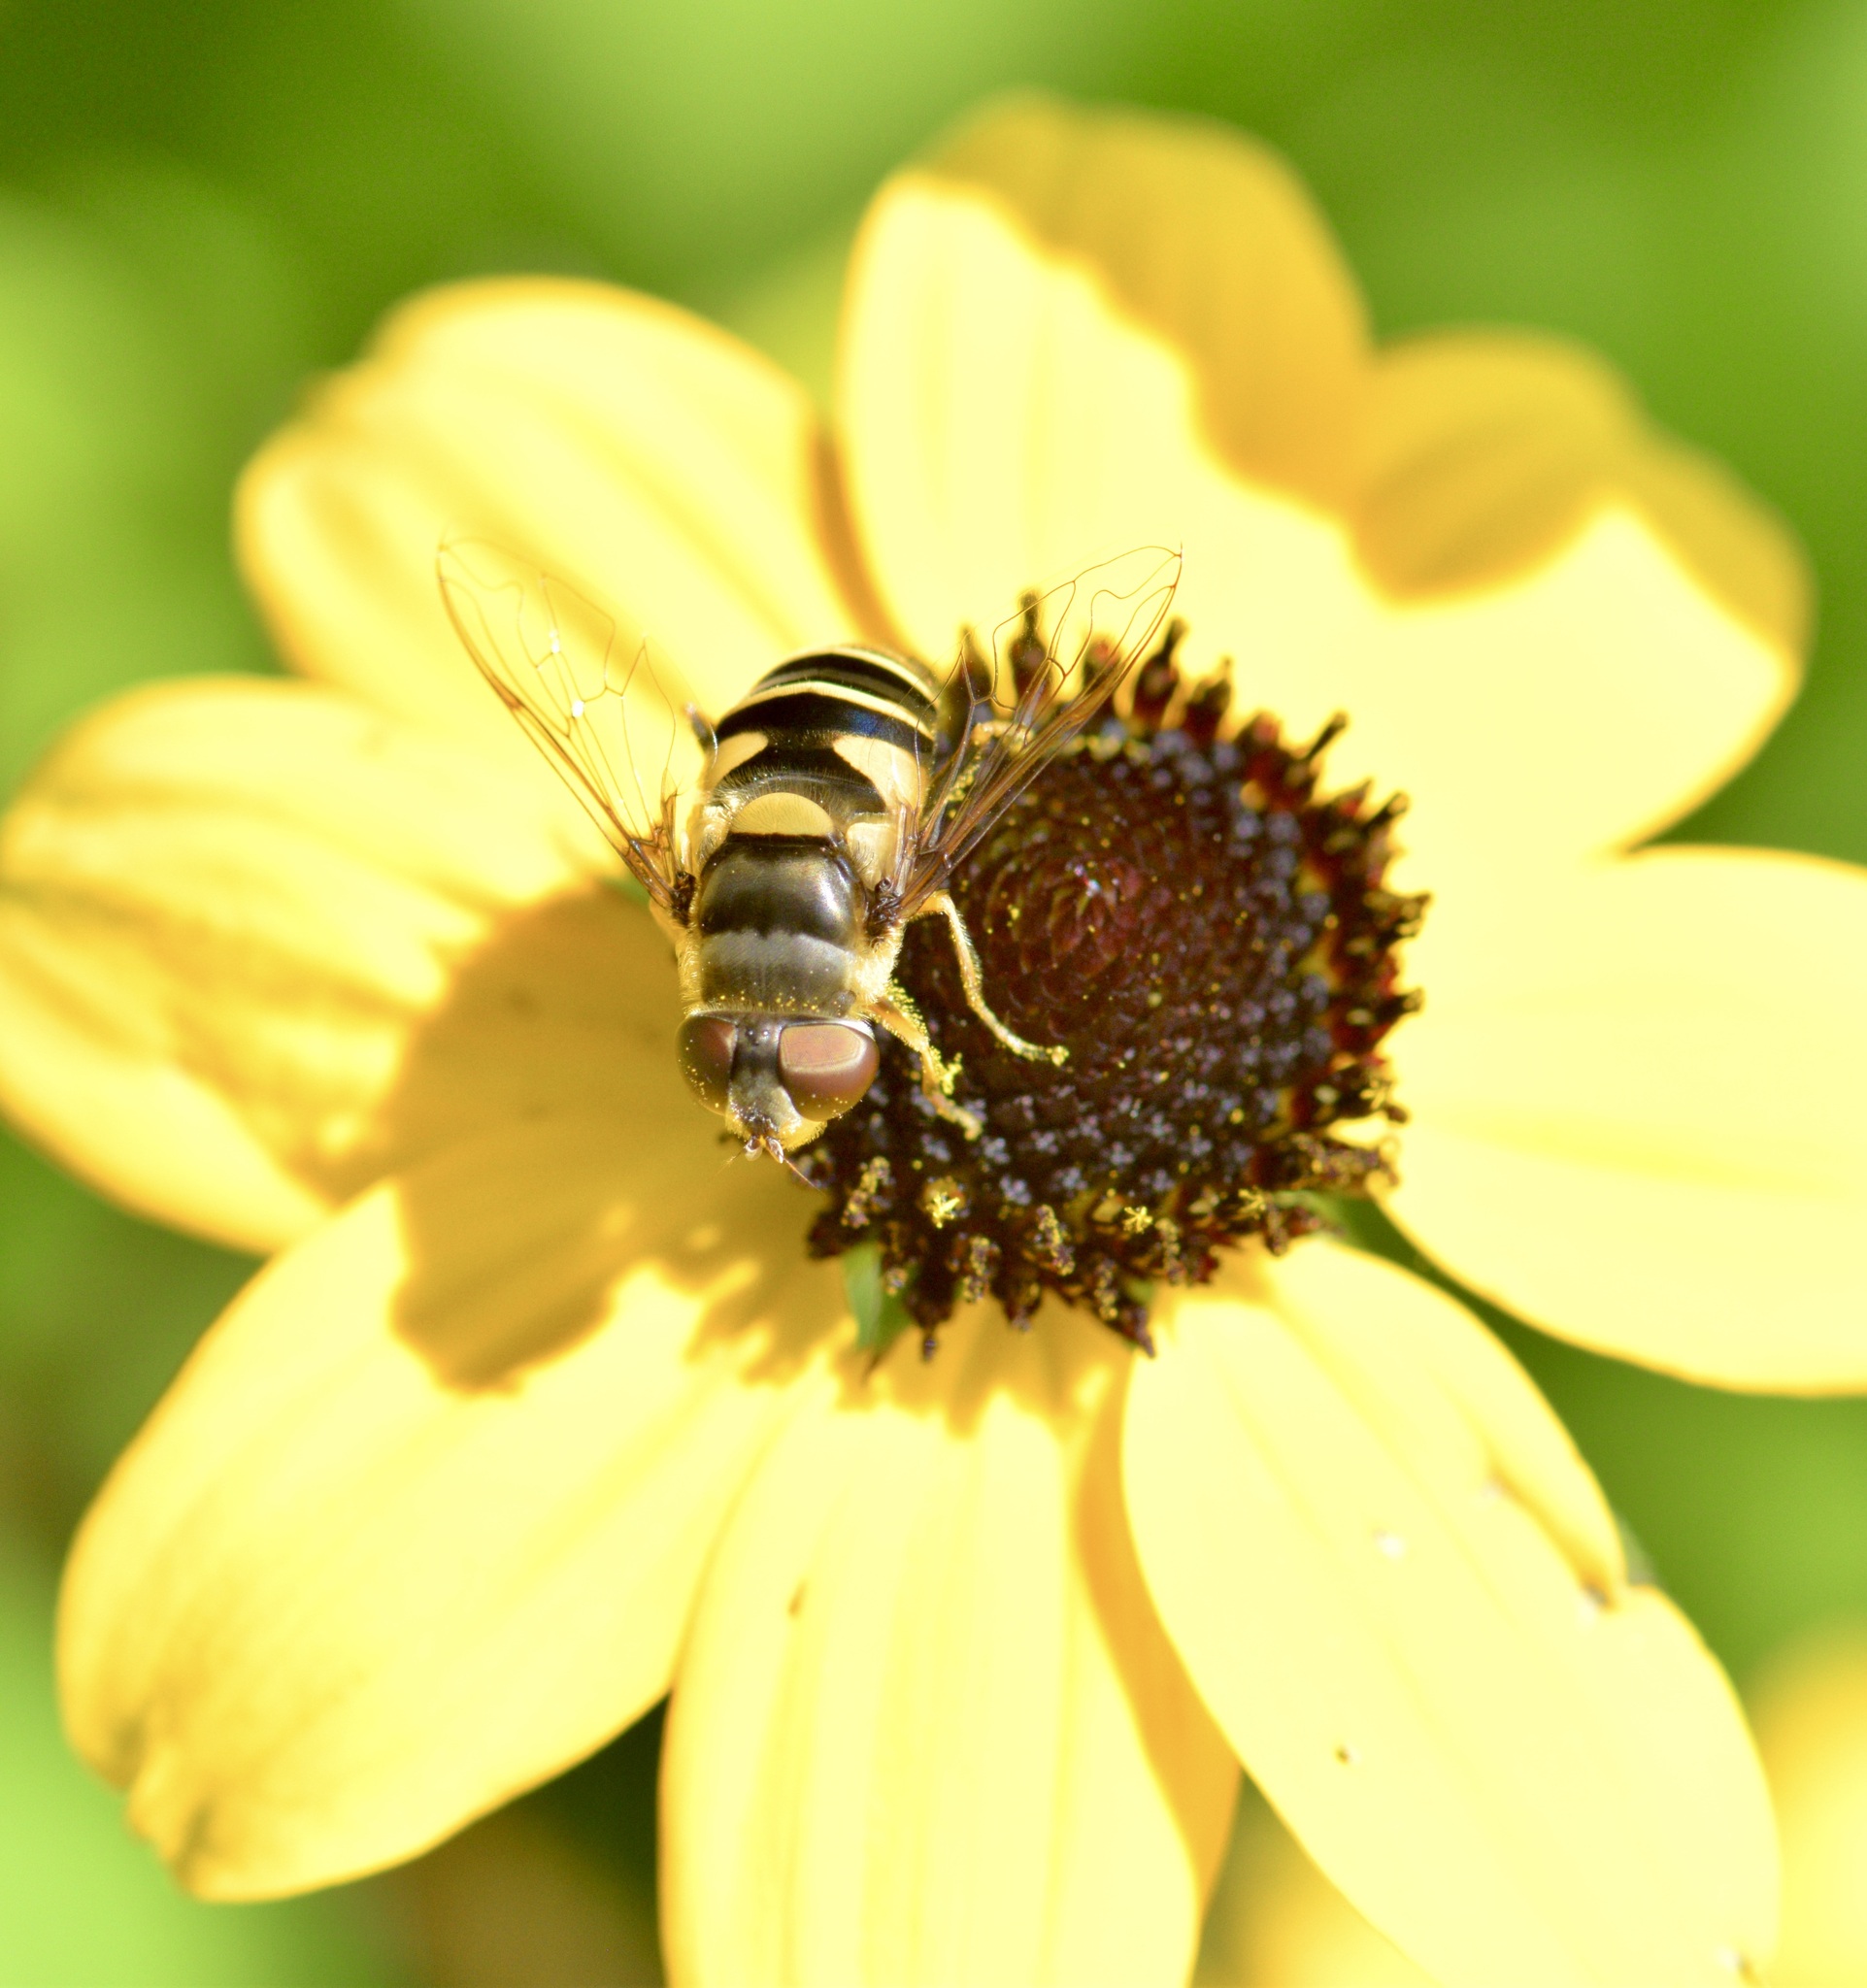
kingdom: Animalia
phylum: Arthropoda
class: Insecta
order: Diptera
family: Syrphidae
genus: Eristalis
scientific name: Eristalis transversa
